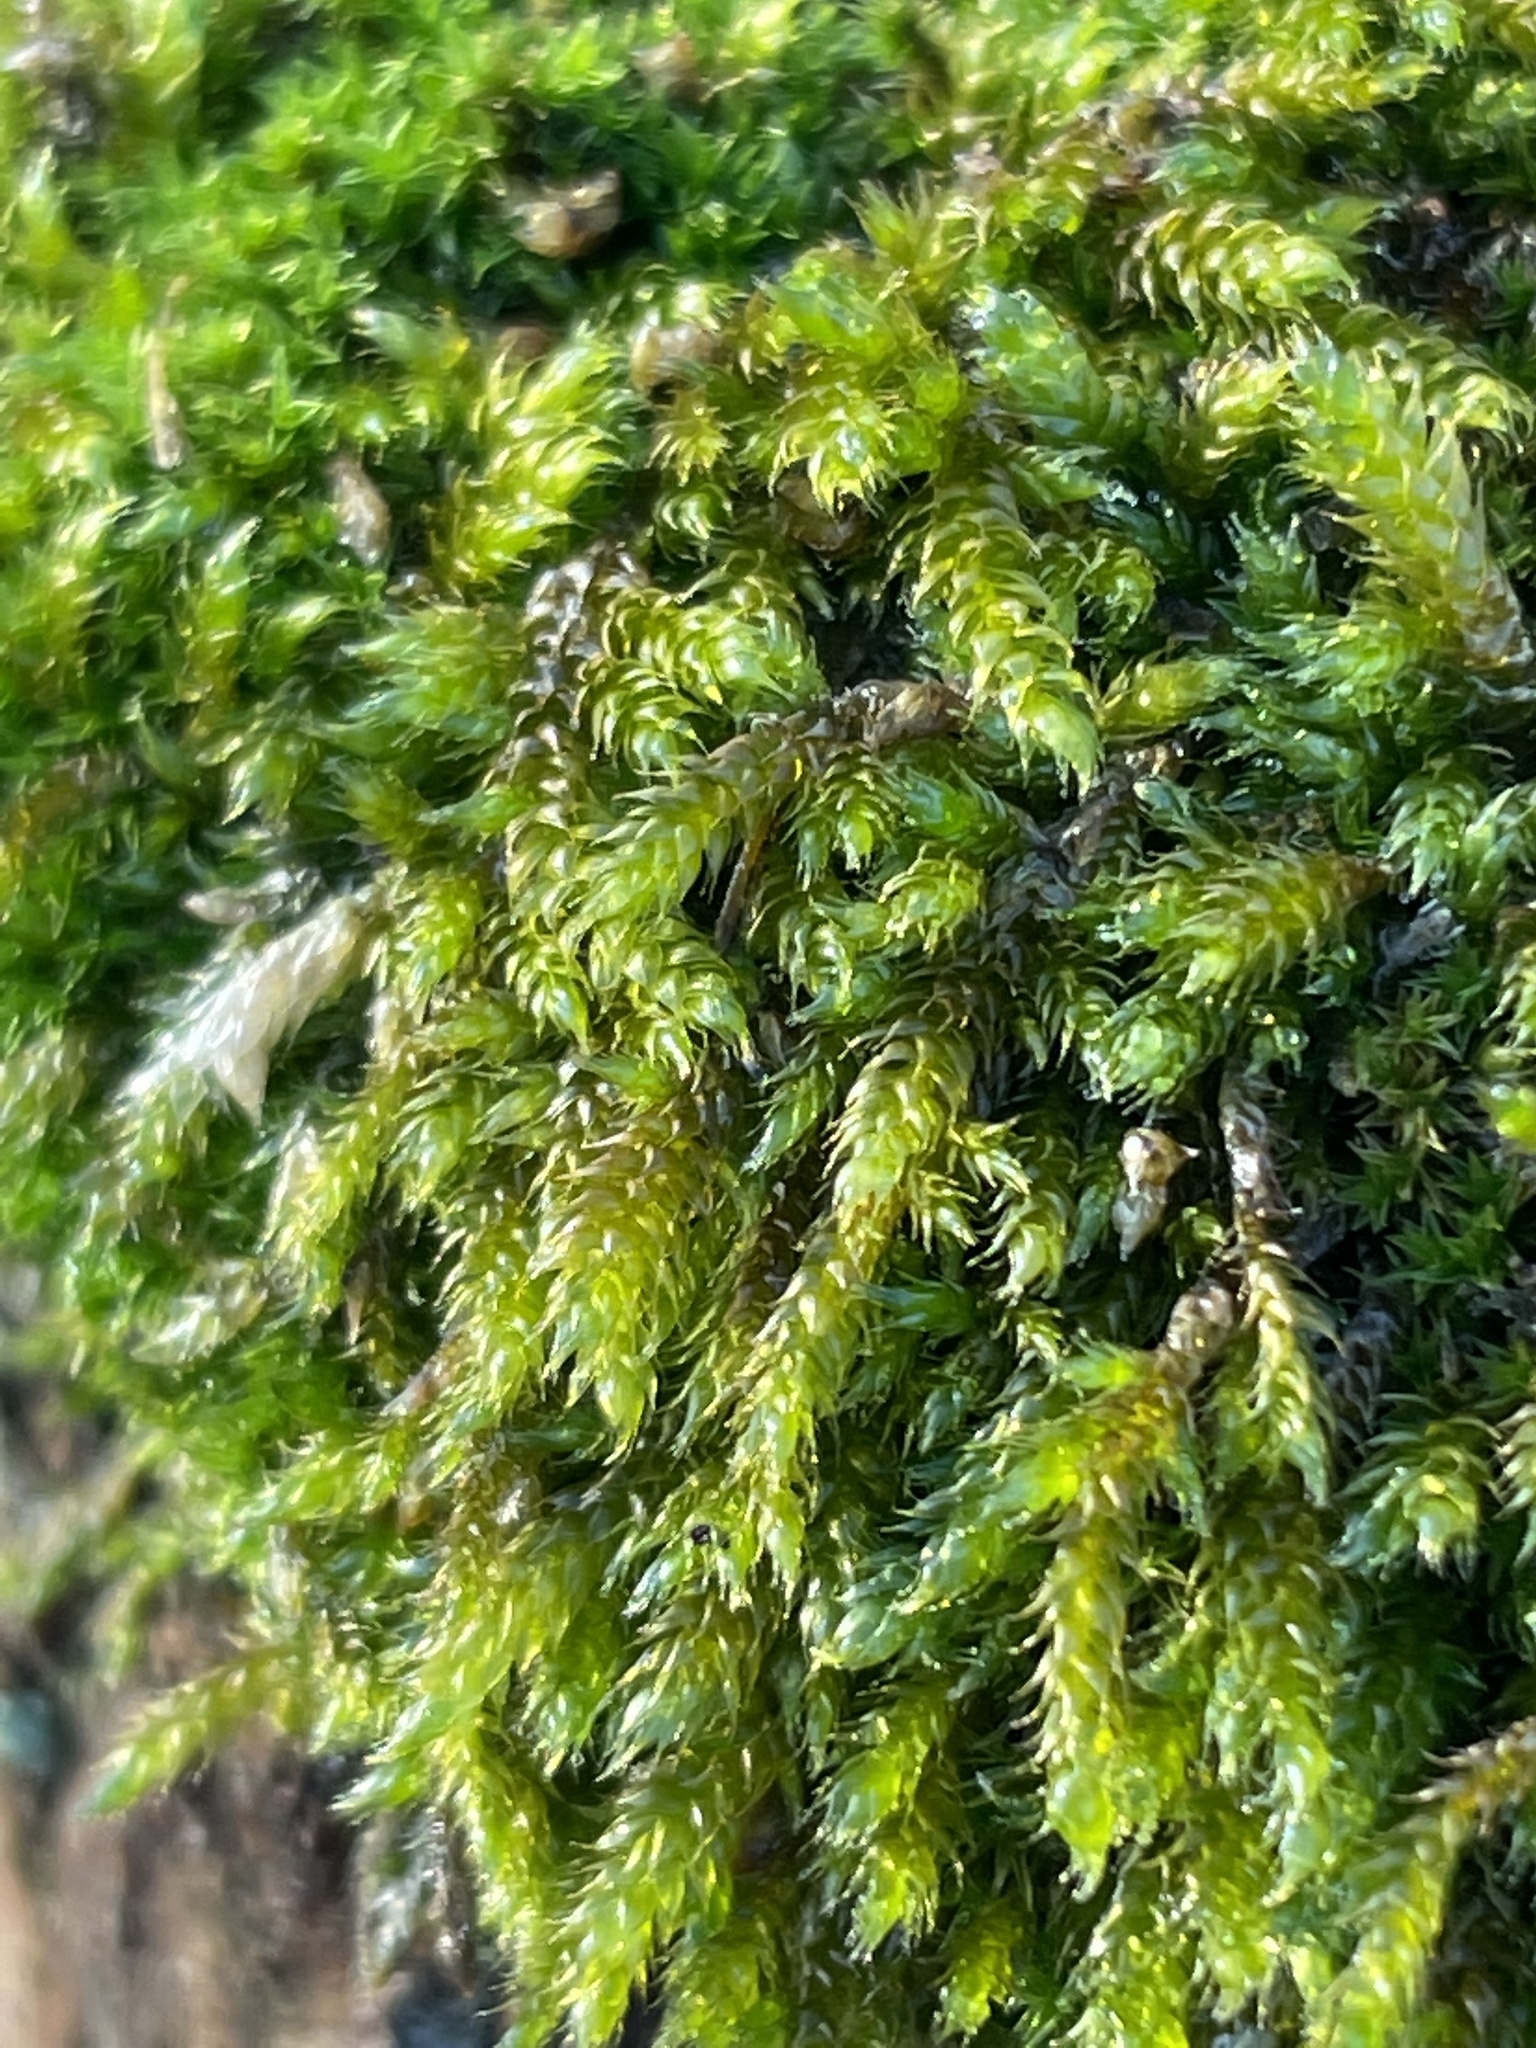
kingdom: Plantae
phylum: Bryophyta
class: Bryopsida
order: Hypnales
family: Hypnaceae
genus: Hypnum
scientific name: Hypnum cupressiforme
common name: Cypress-leaved plait-moss
